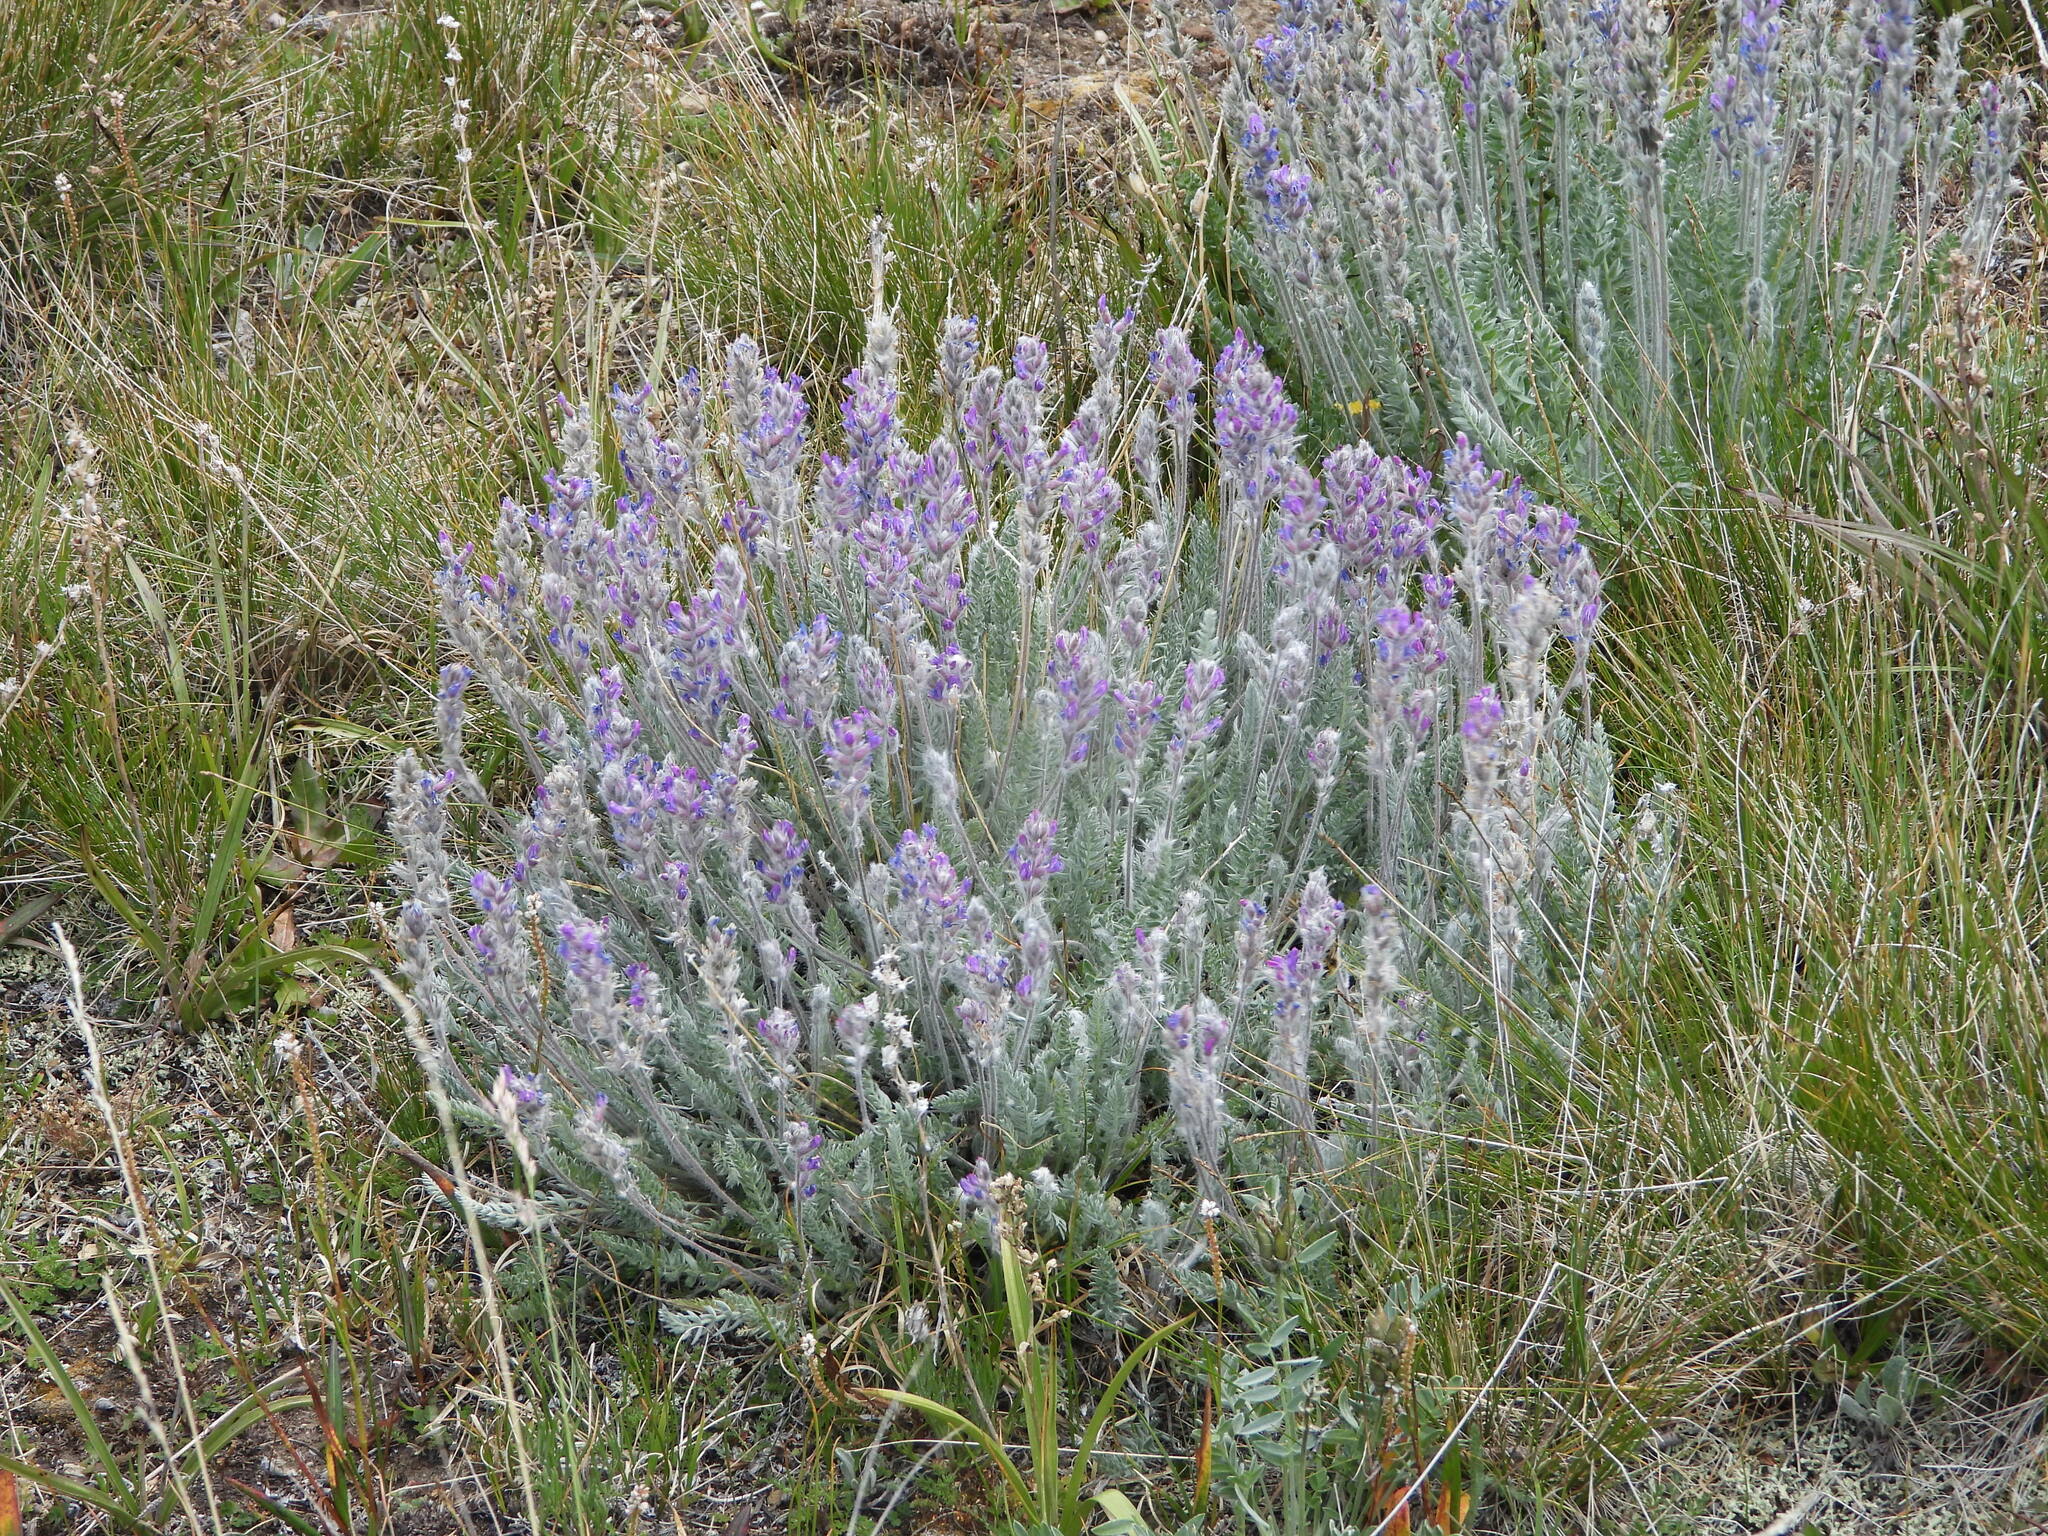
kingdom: Plantae
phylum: Tracheophyta
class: Magnoliopsida
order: Fabales
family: Fabaceae
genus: Oxytropis
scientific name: Oxytropis splendens
